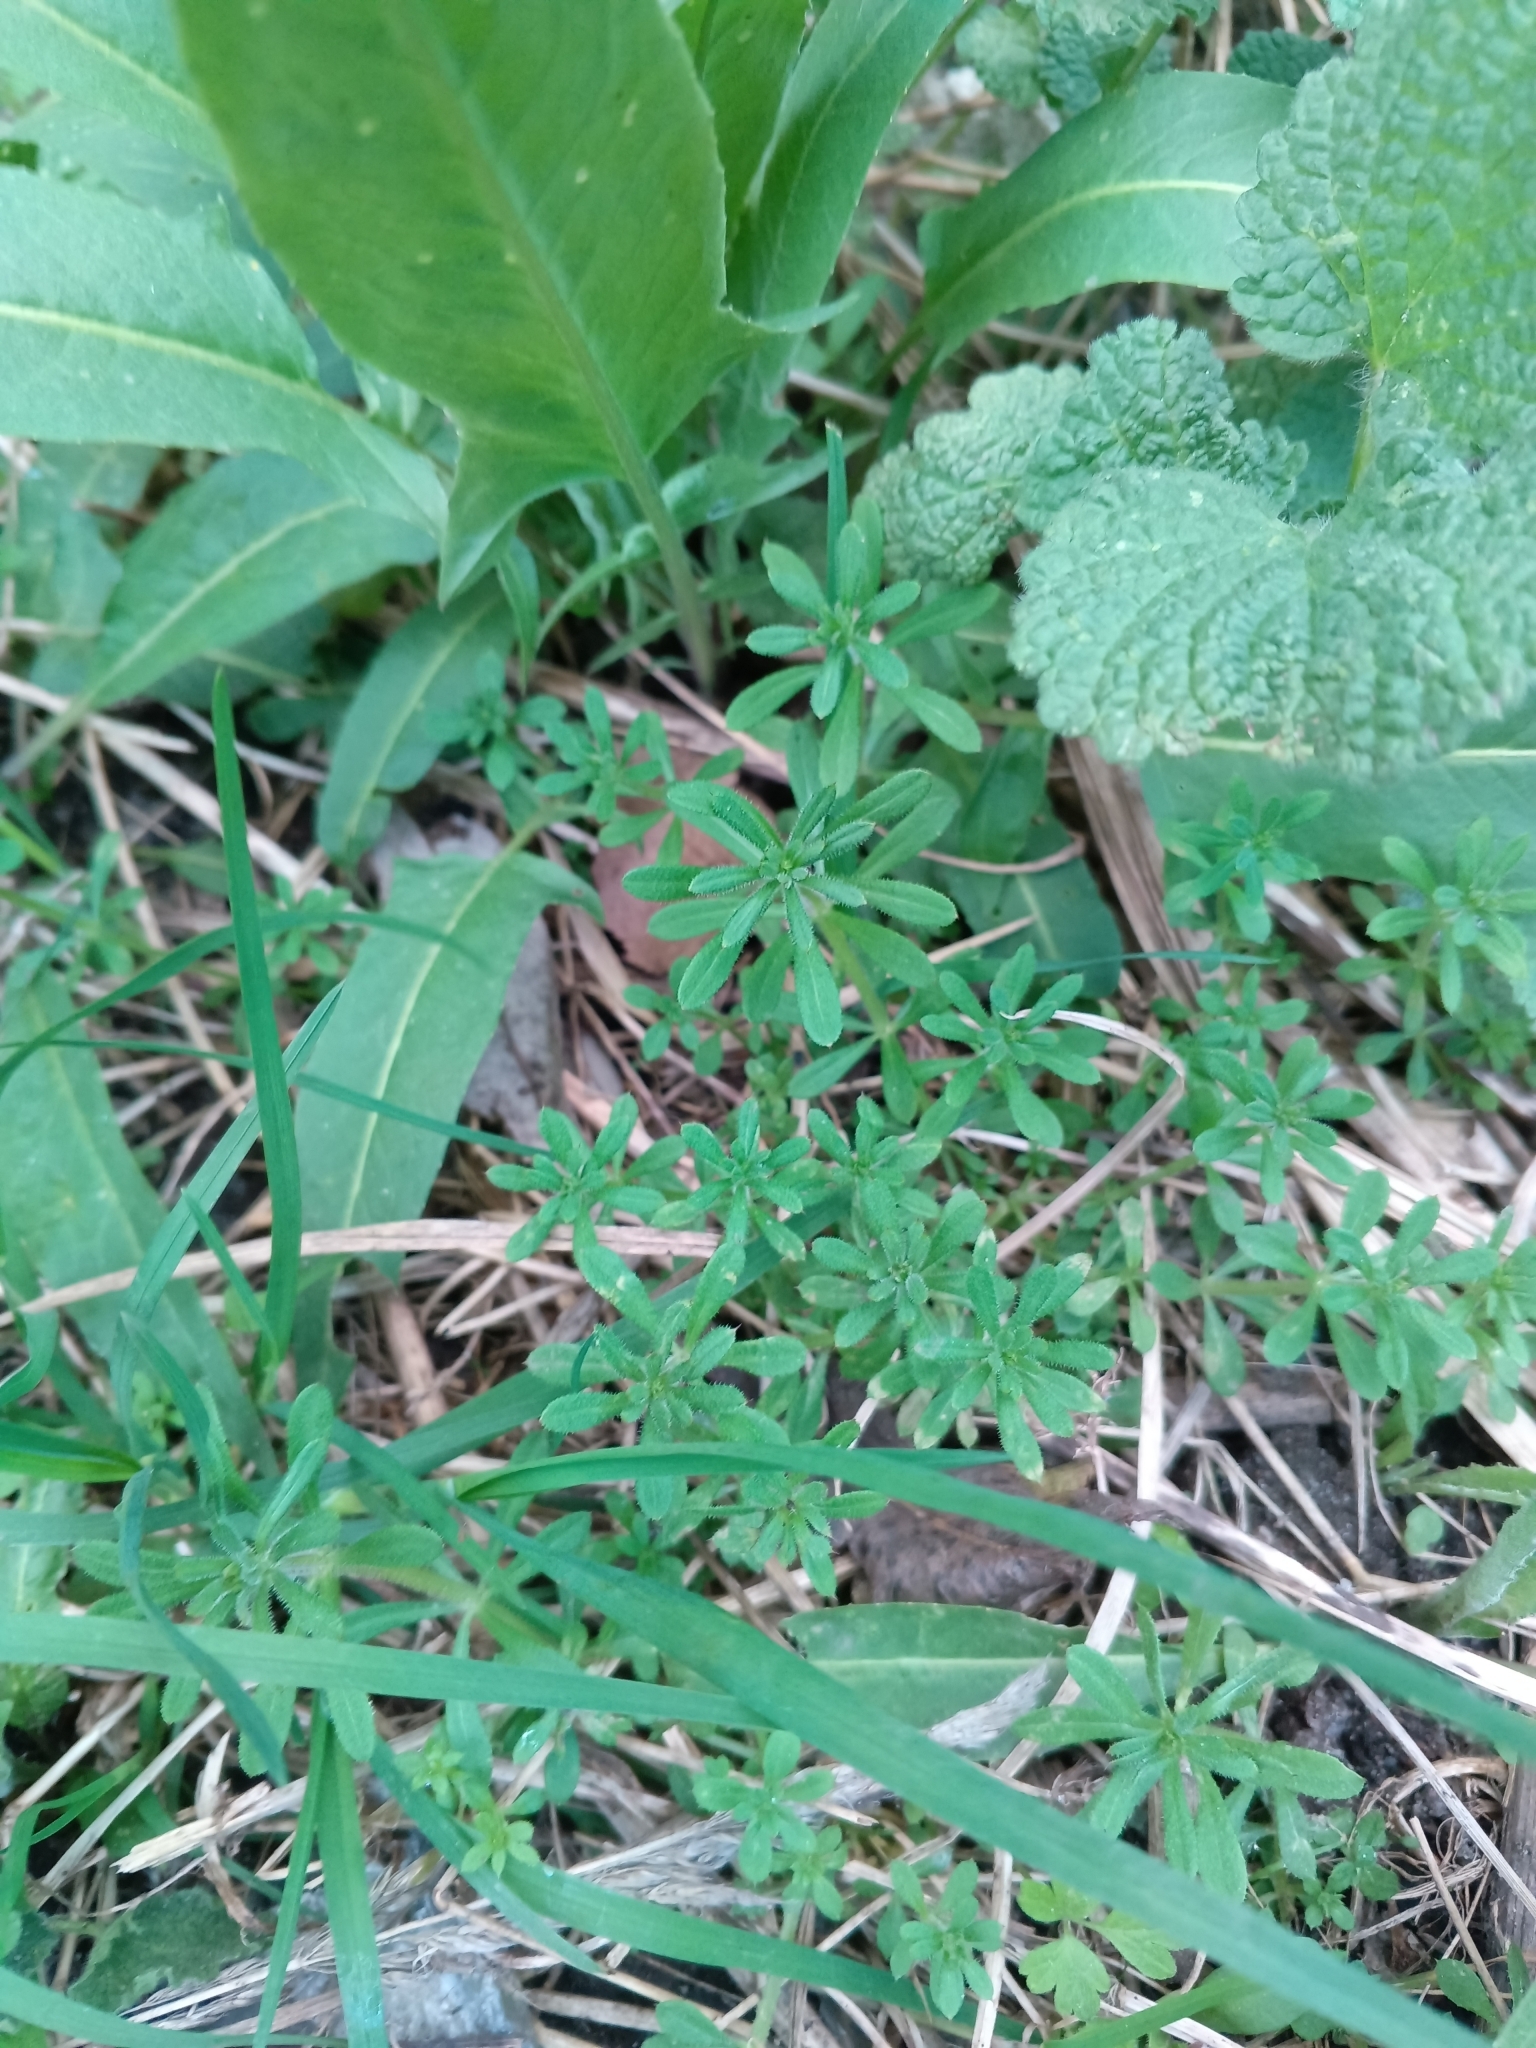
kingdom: Plantae
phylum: Tracheophyta
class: Magnoliopsida
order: Gentianales
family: Rubiaceae
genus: Galium
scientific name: Galium aparine
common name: Cleavers
